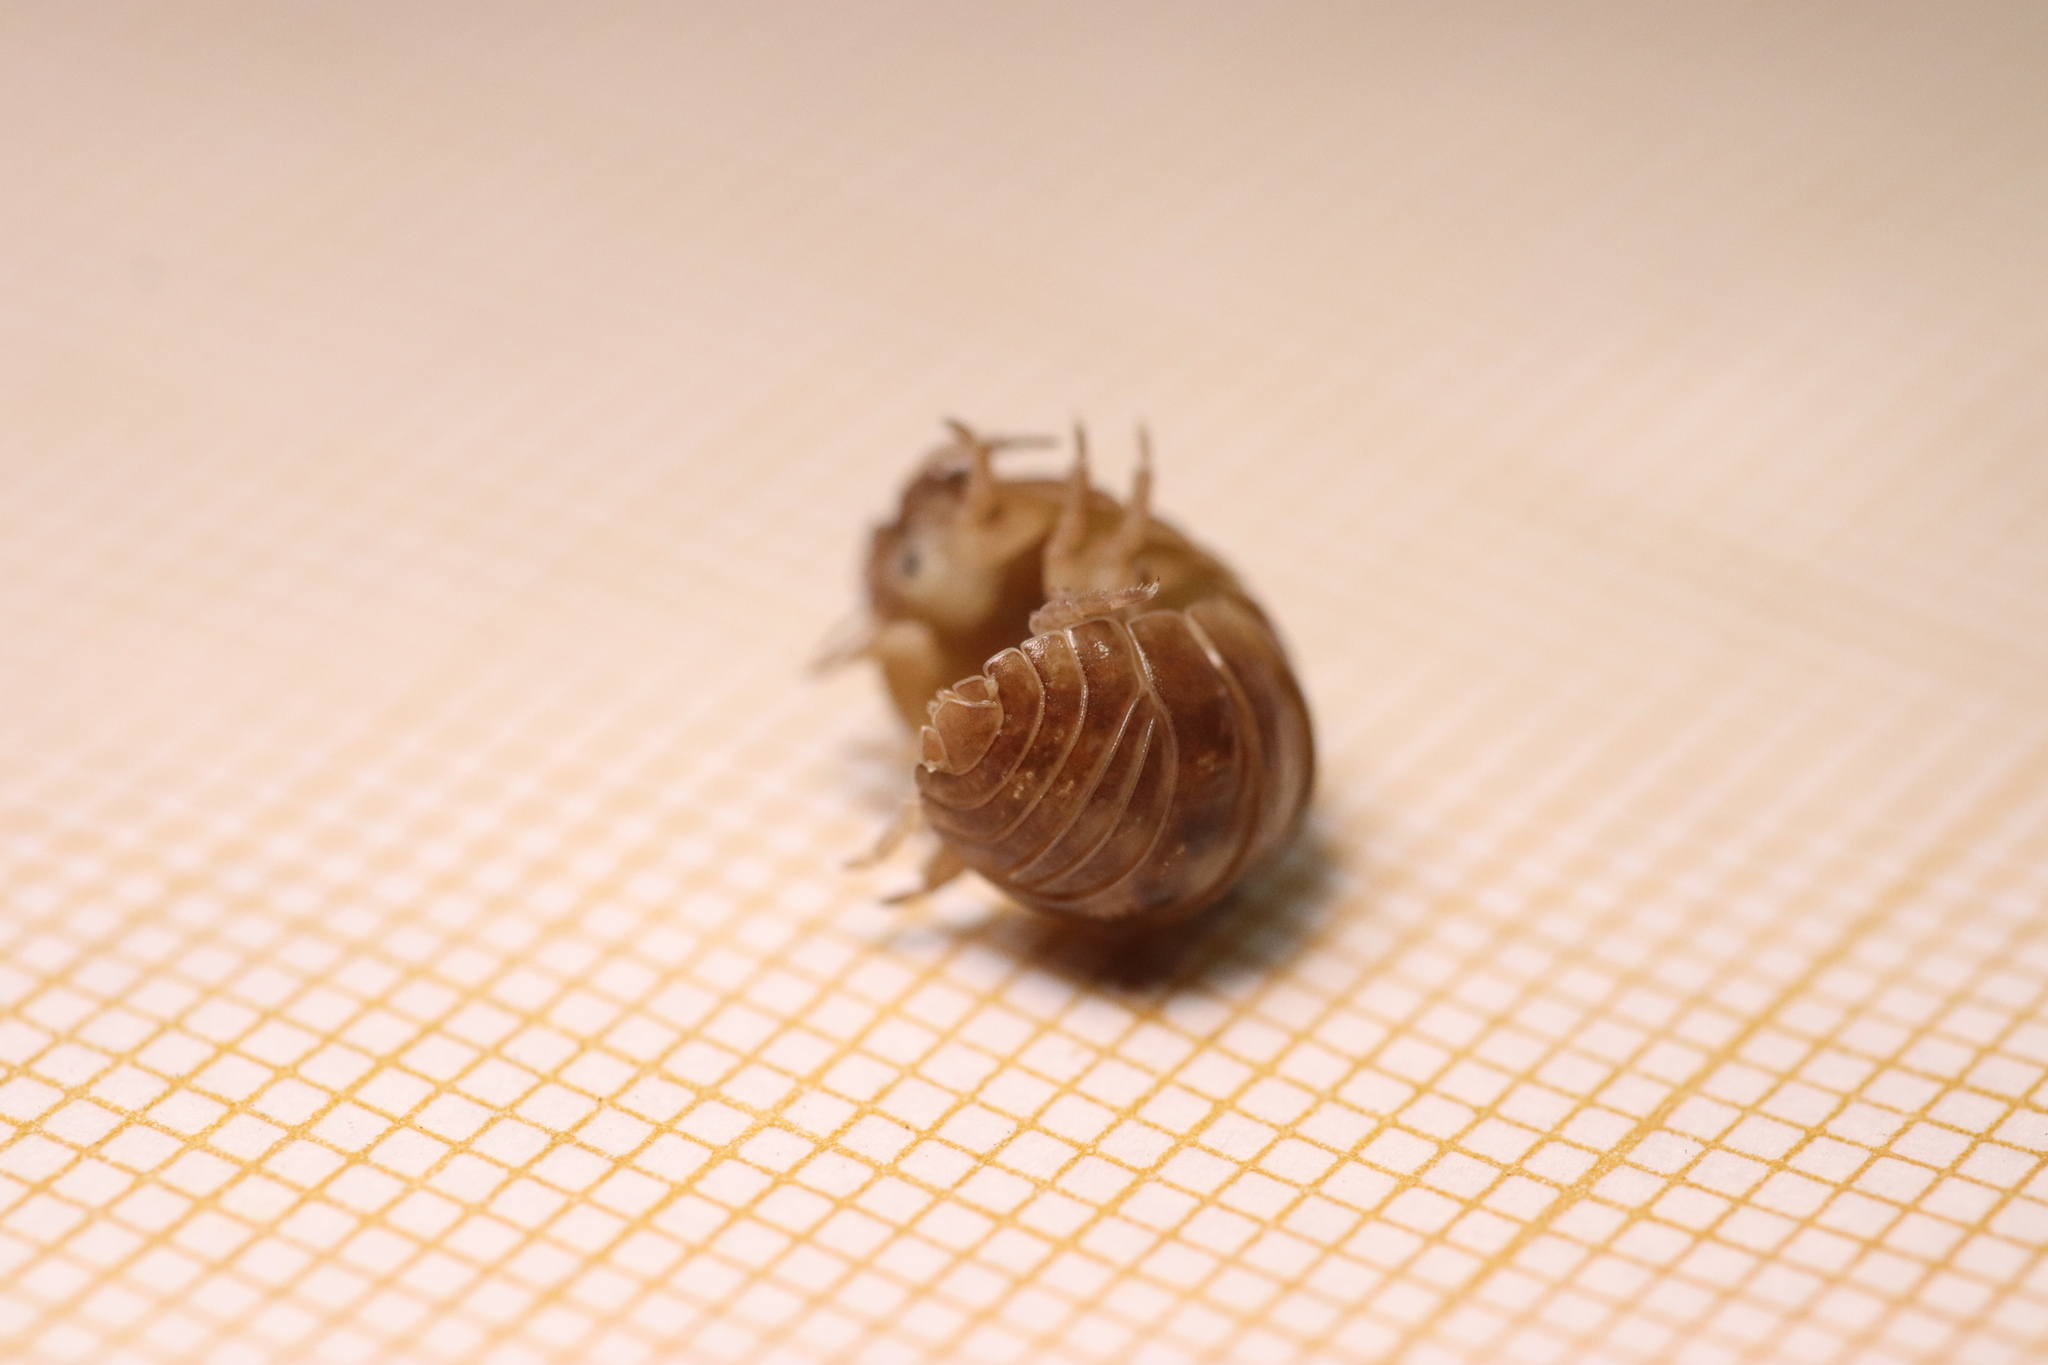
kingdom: Animalia
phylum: Arthropoda
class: Malacostraca
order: Isopoda
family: Armadillidiidae
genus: Armadillidium
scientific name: Armadillidium vulgare
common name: Common pill woodlouse
